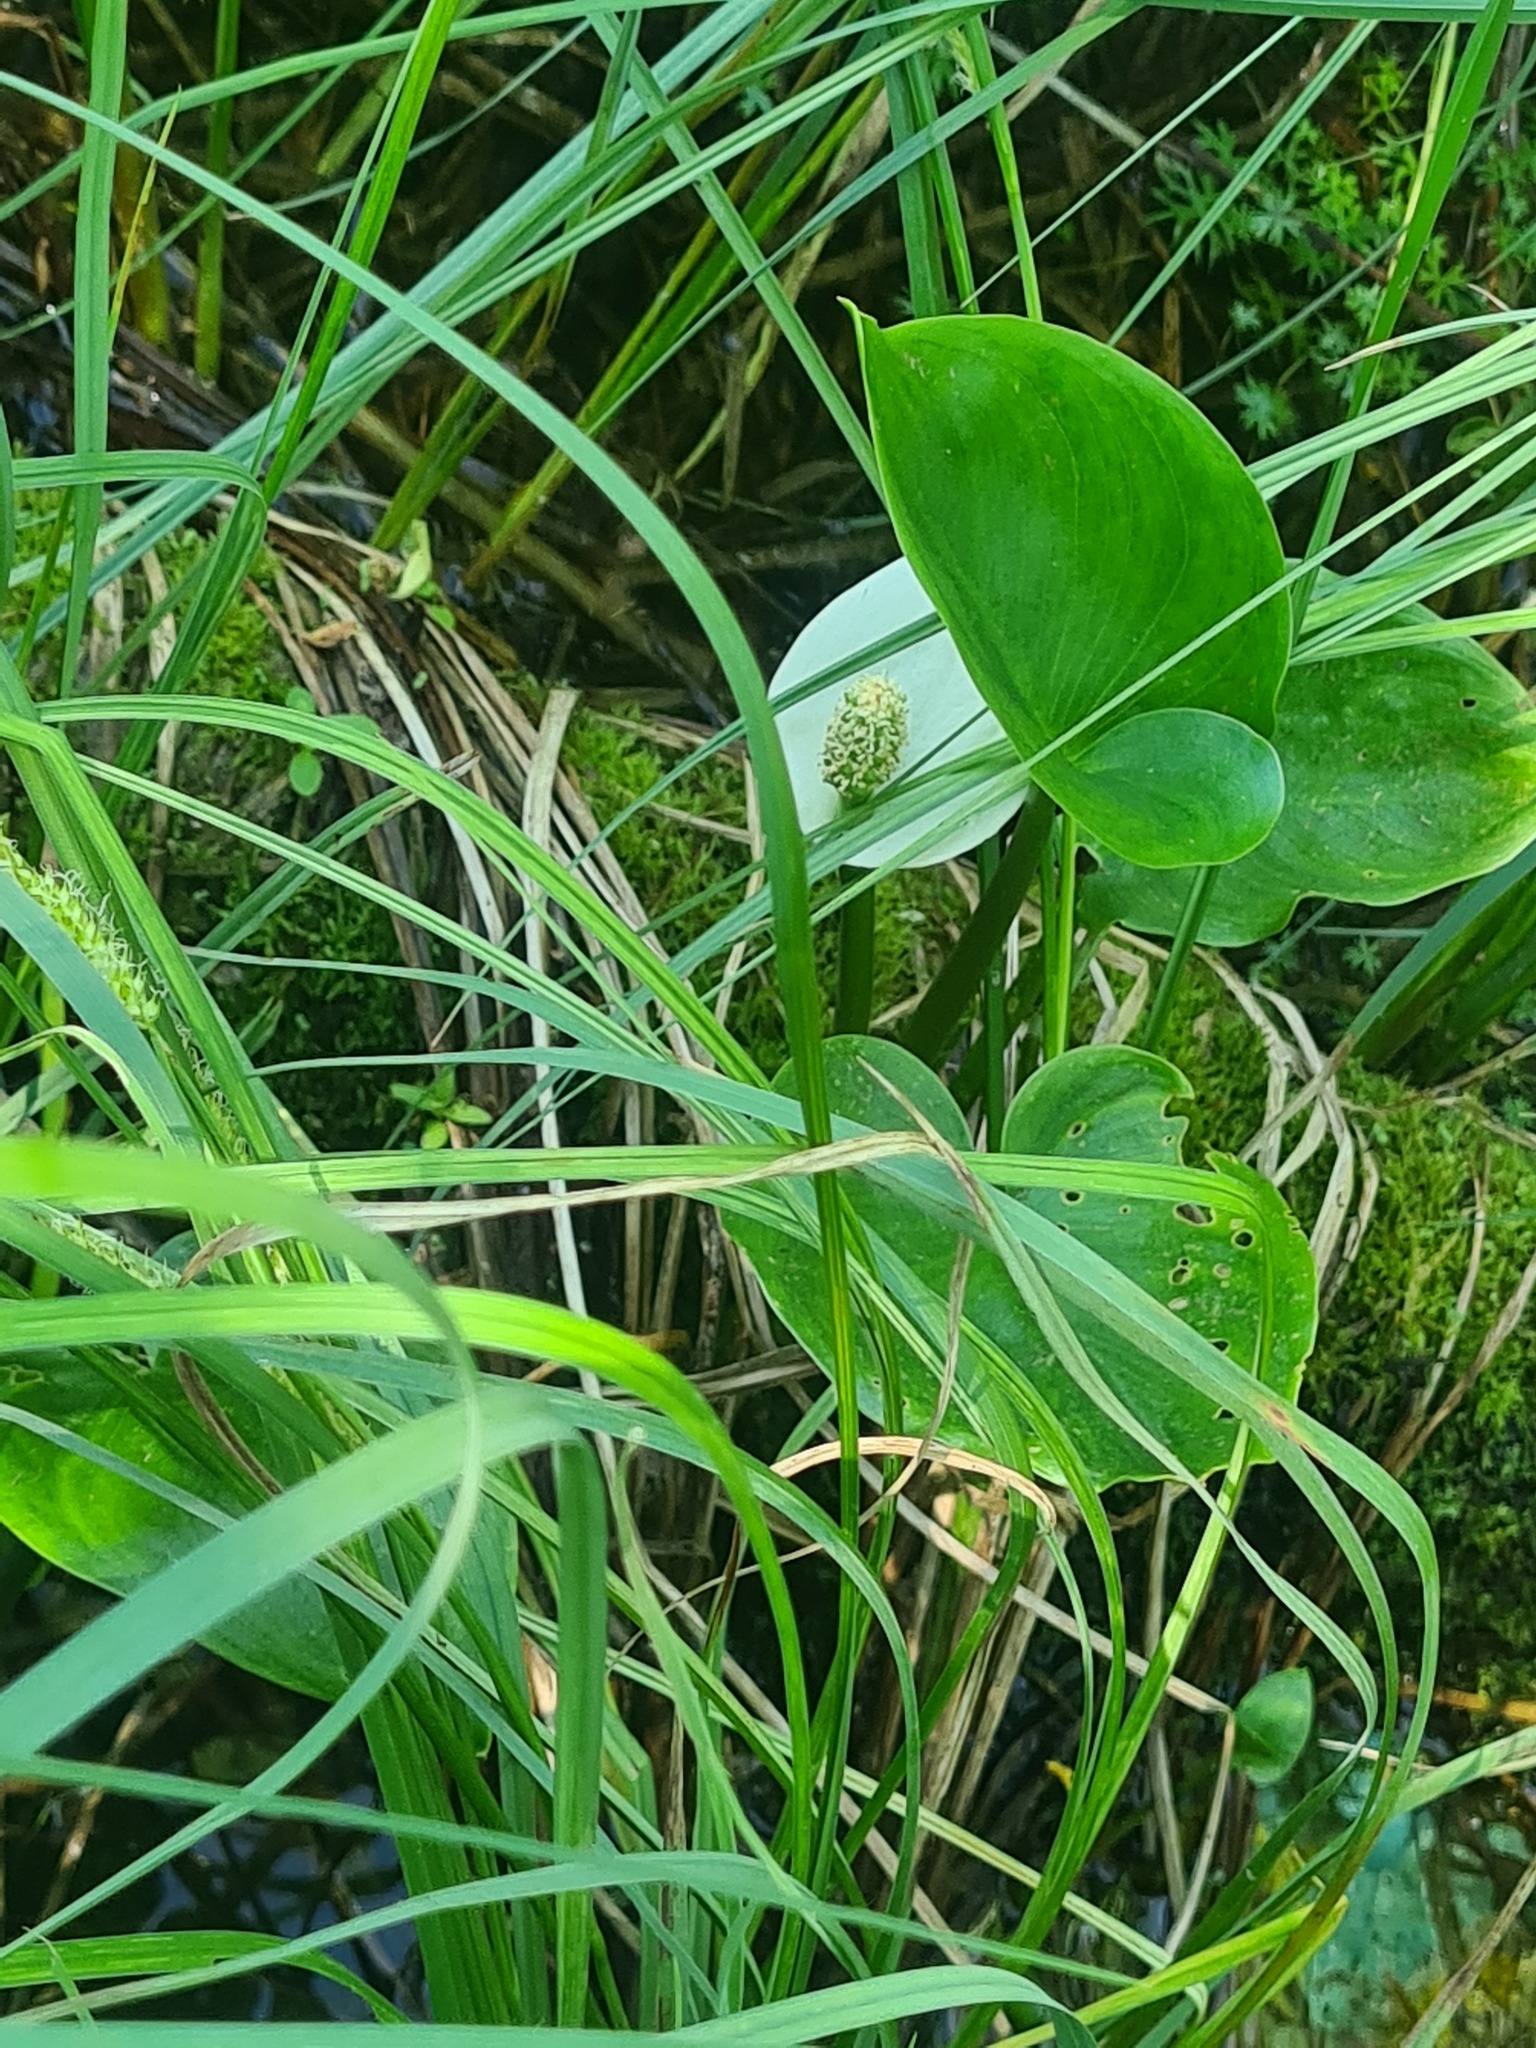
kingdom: Plantae
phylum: Tracheophyta
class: Liliopsida
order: Alismatales
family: Araceae
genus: Calla
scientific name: Calla palustris
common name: Bog arum
